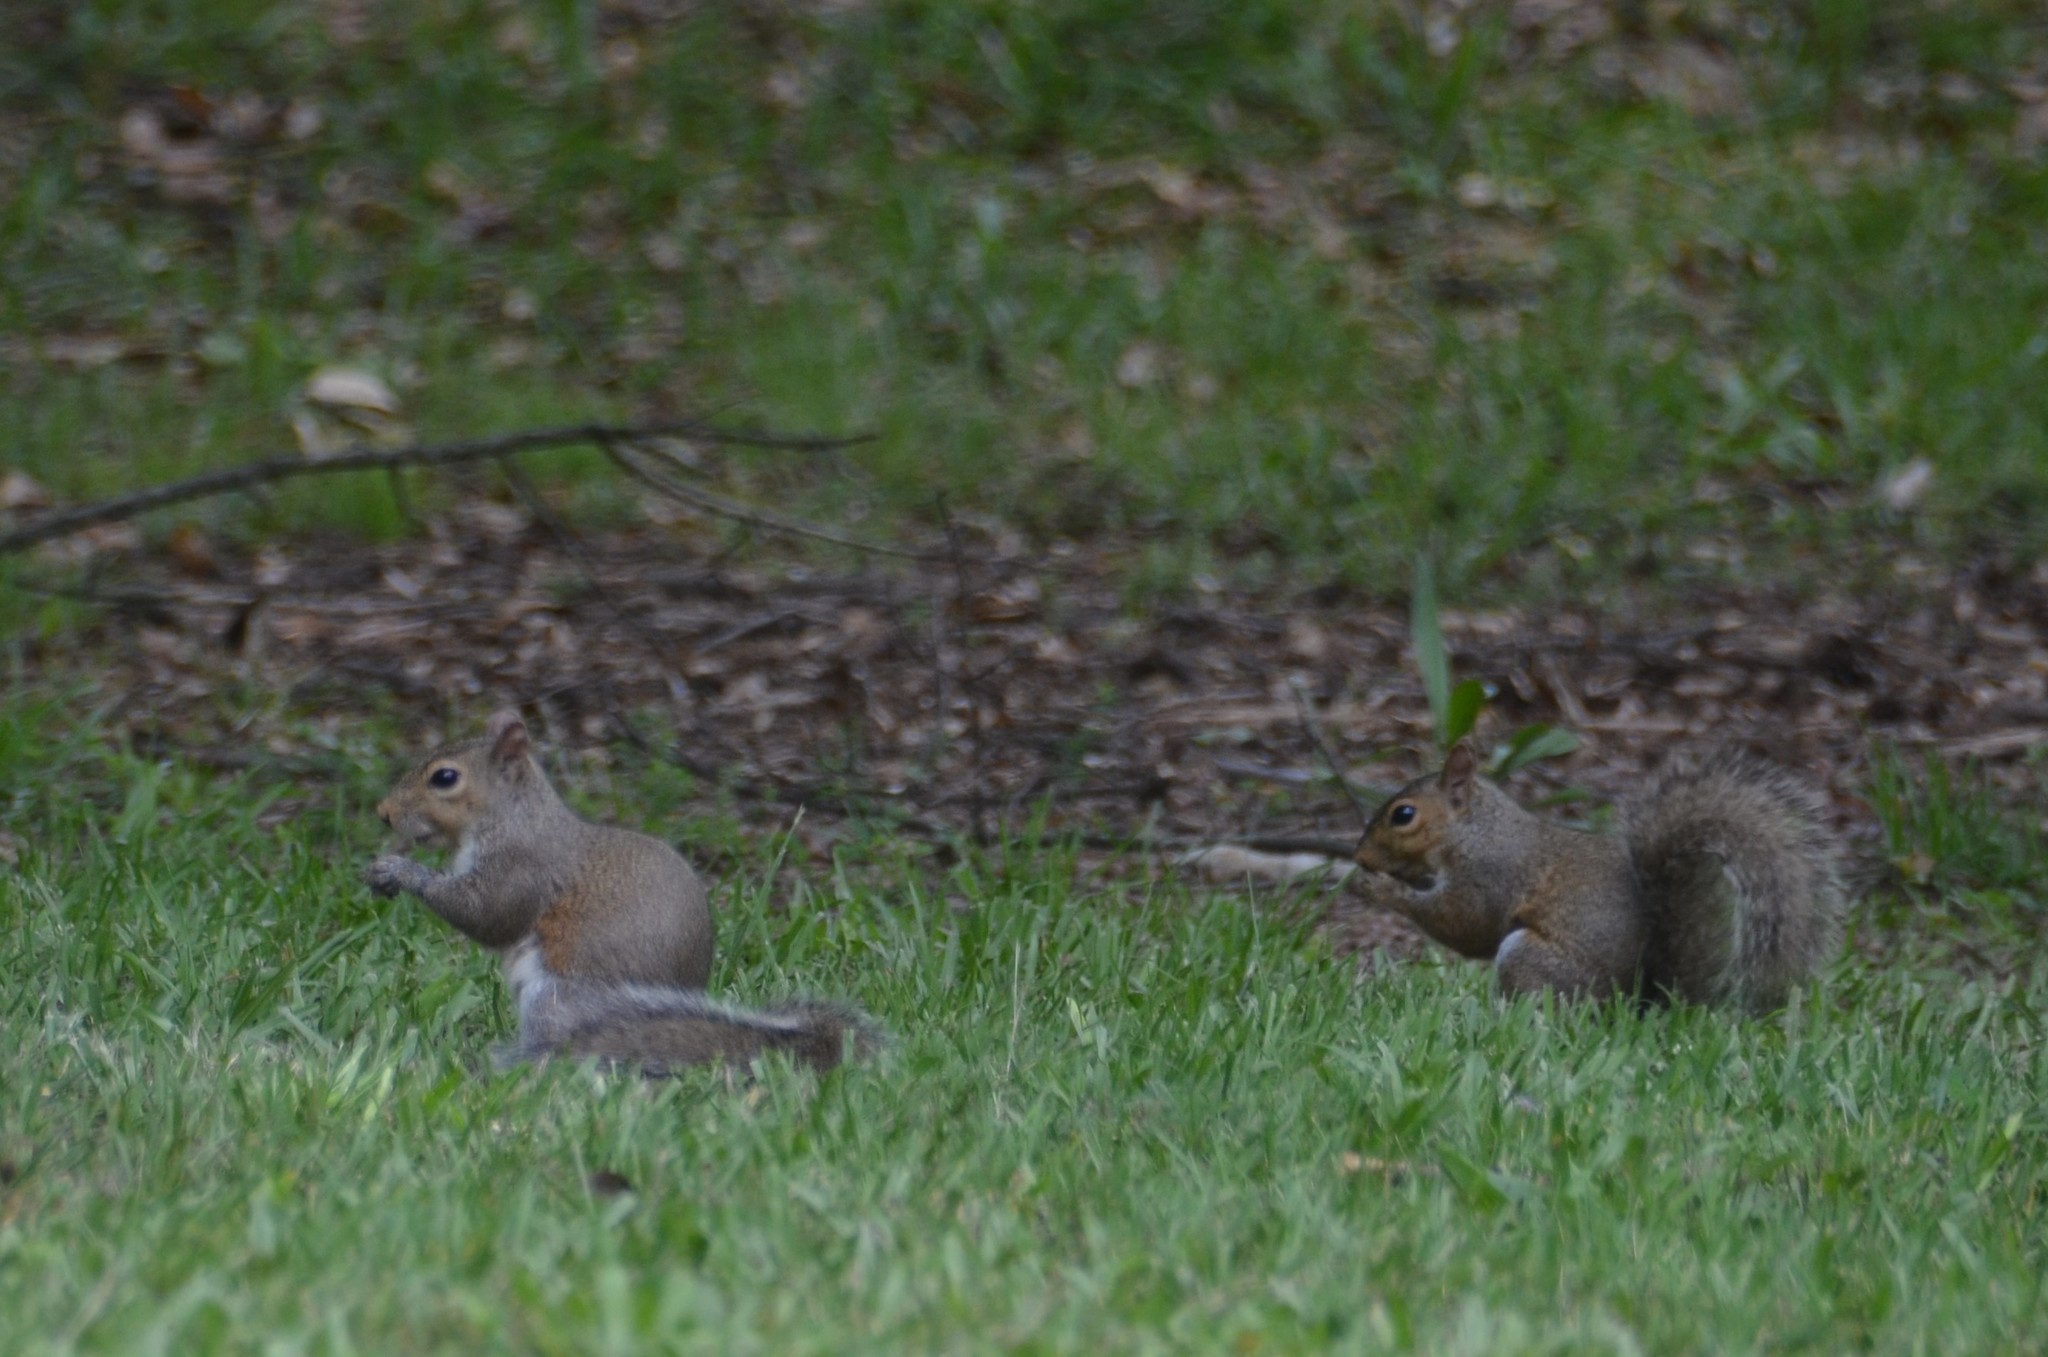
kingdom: Animalia
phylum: Chordata
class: Mammalia
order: Rodentia
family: Sciuridae
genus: Sciurus
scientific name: Sciurus carolinensis
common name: Eastern gray squirrel
